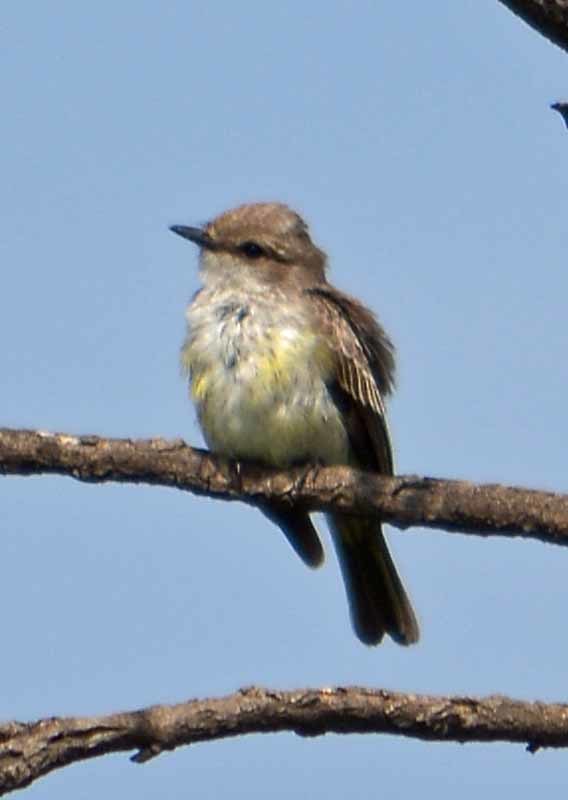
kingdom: Animalia
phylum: Chordata
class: Aves
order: Passeriformes
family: Tyrannidae
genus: Pyrocephalus
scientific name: Pyrocephalus rubinus
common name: Vermilion flycatcher
